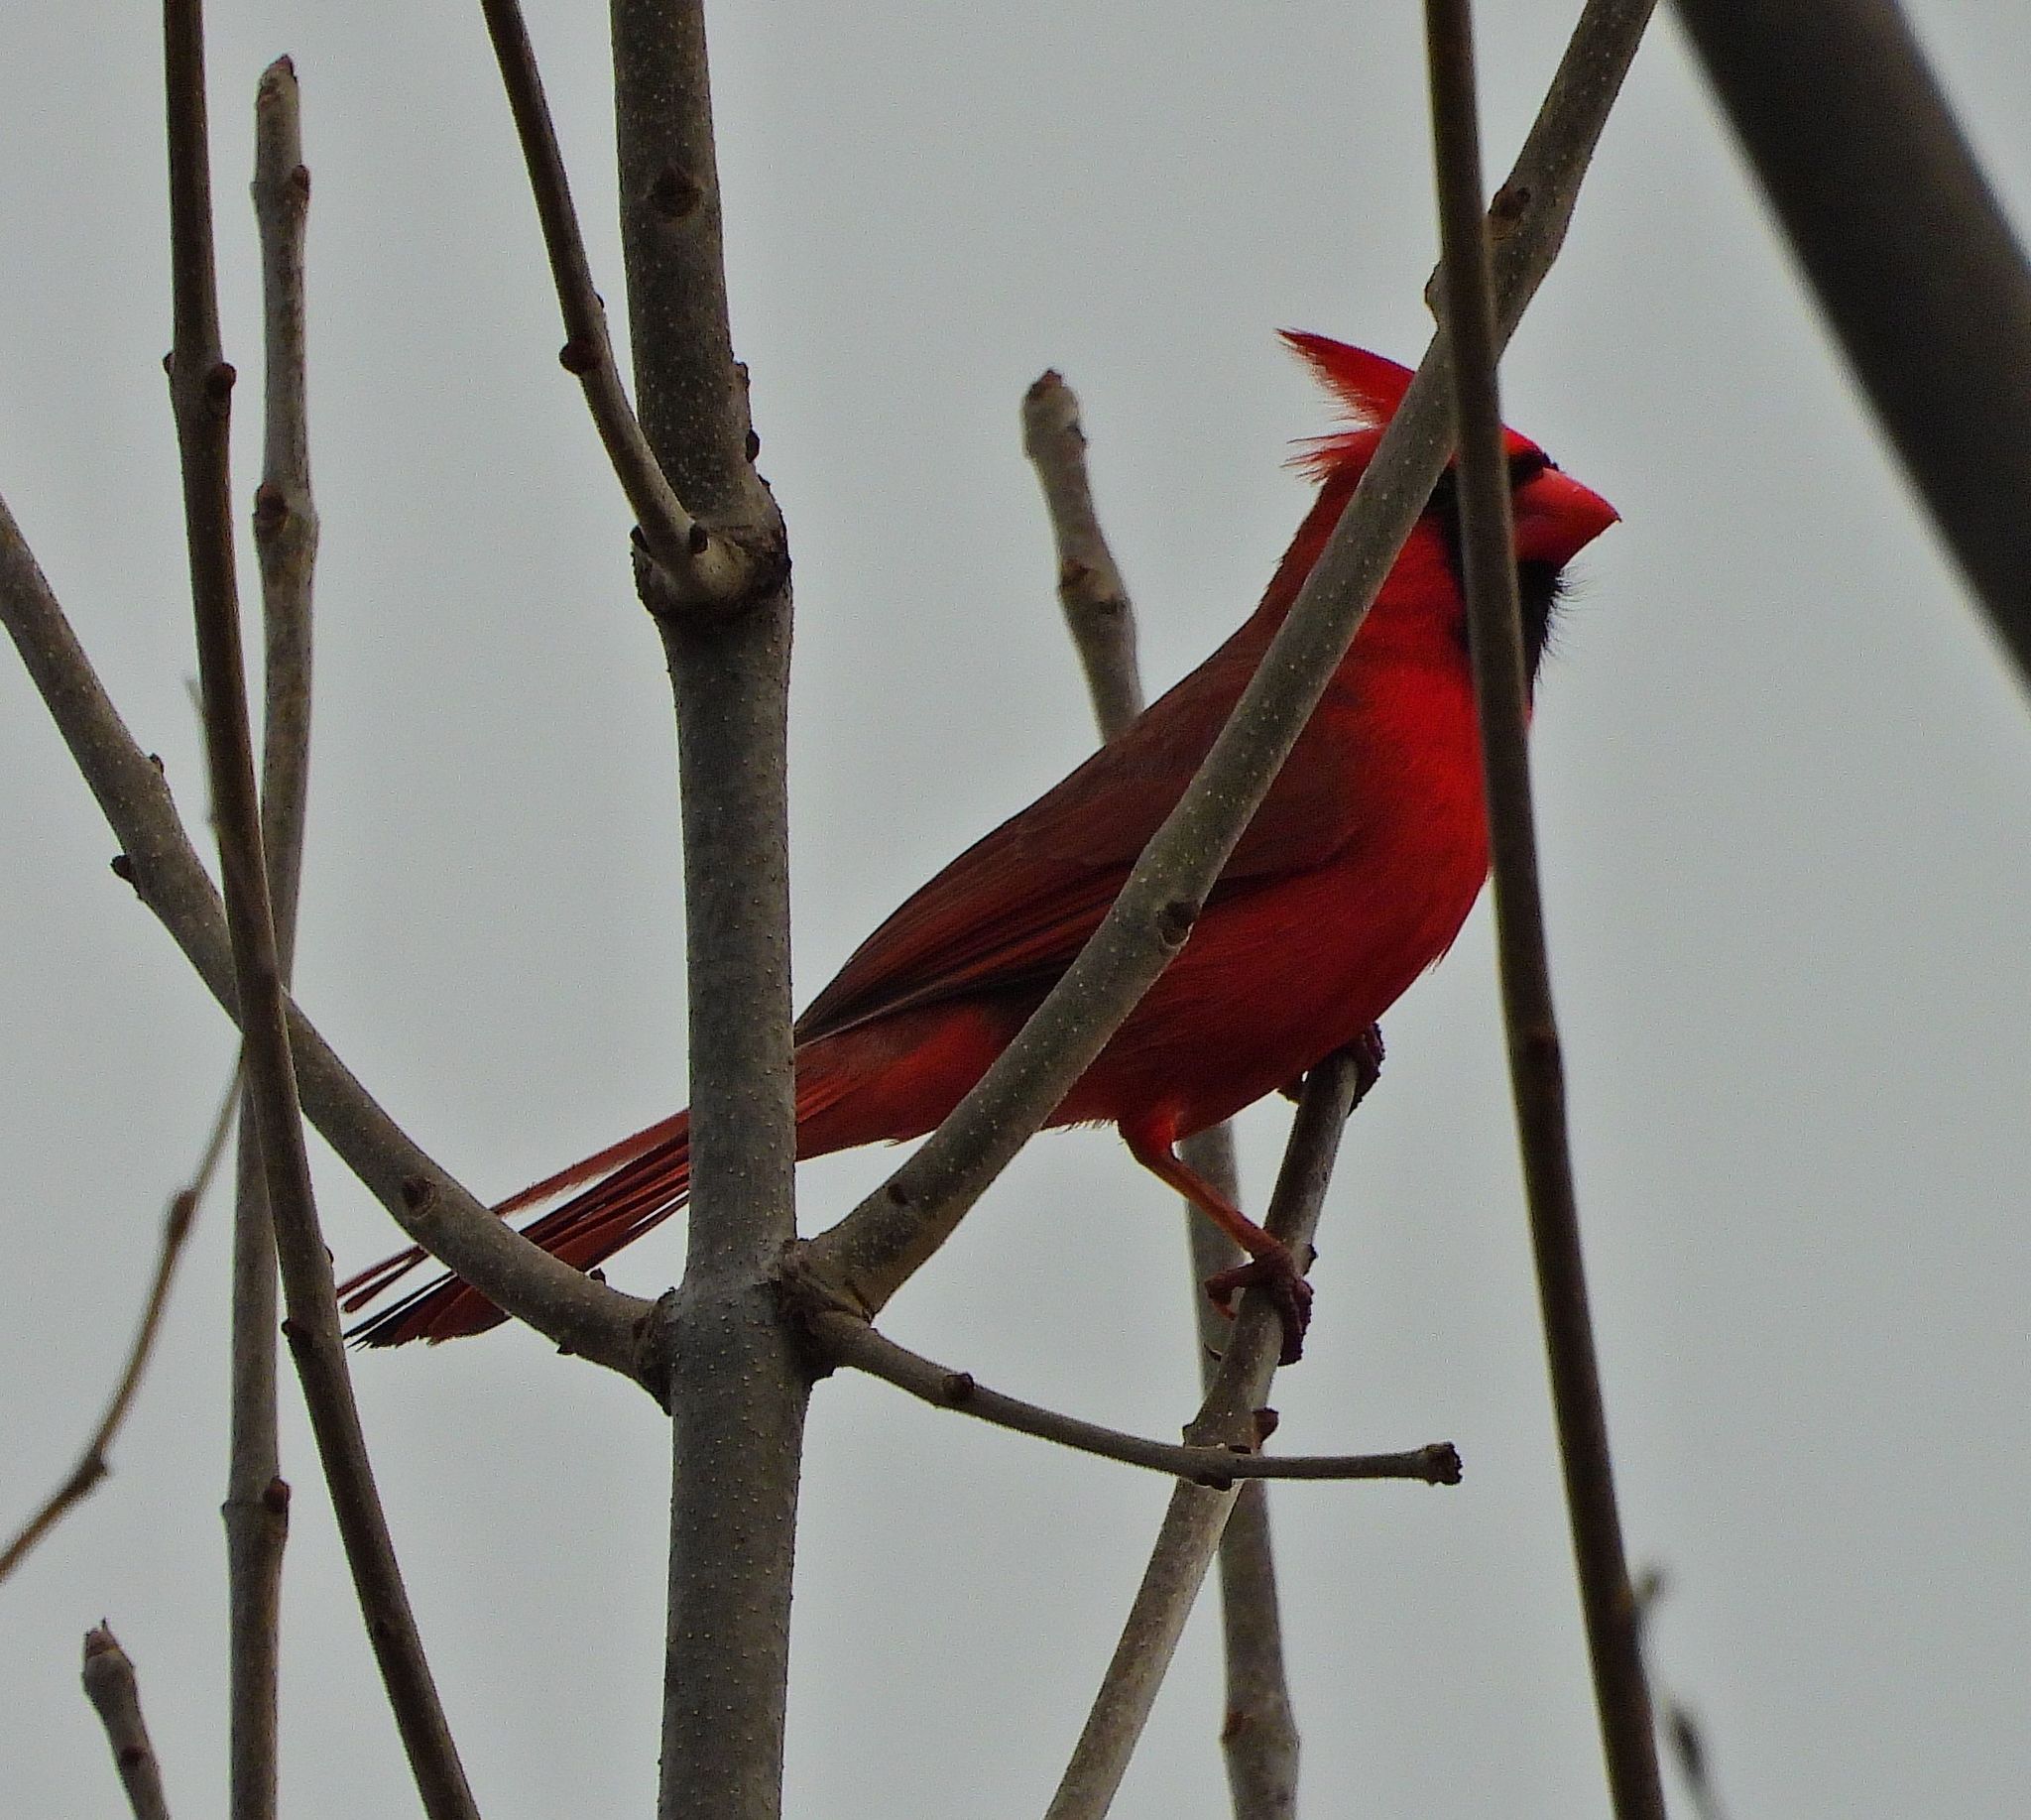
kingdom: Animalia
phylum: Chordata
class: Aves
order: Passeriformes
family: Cardinalidae
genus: Cardinalis
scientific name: Cardinalis cardinalis
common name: Northern cardinal
